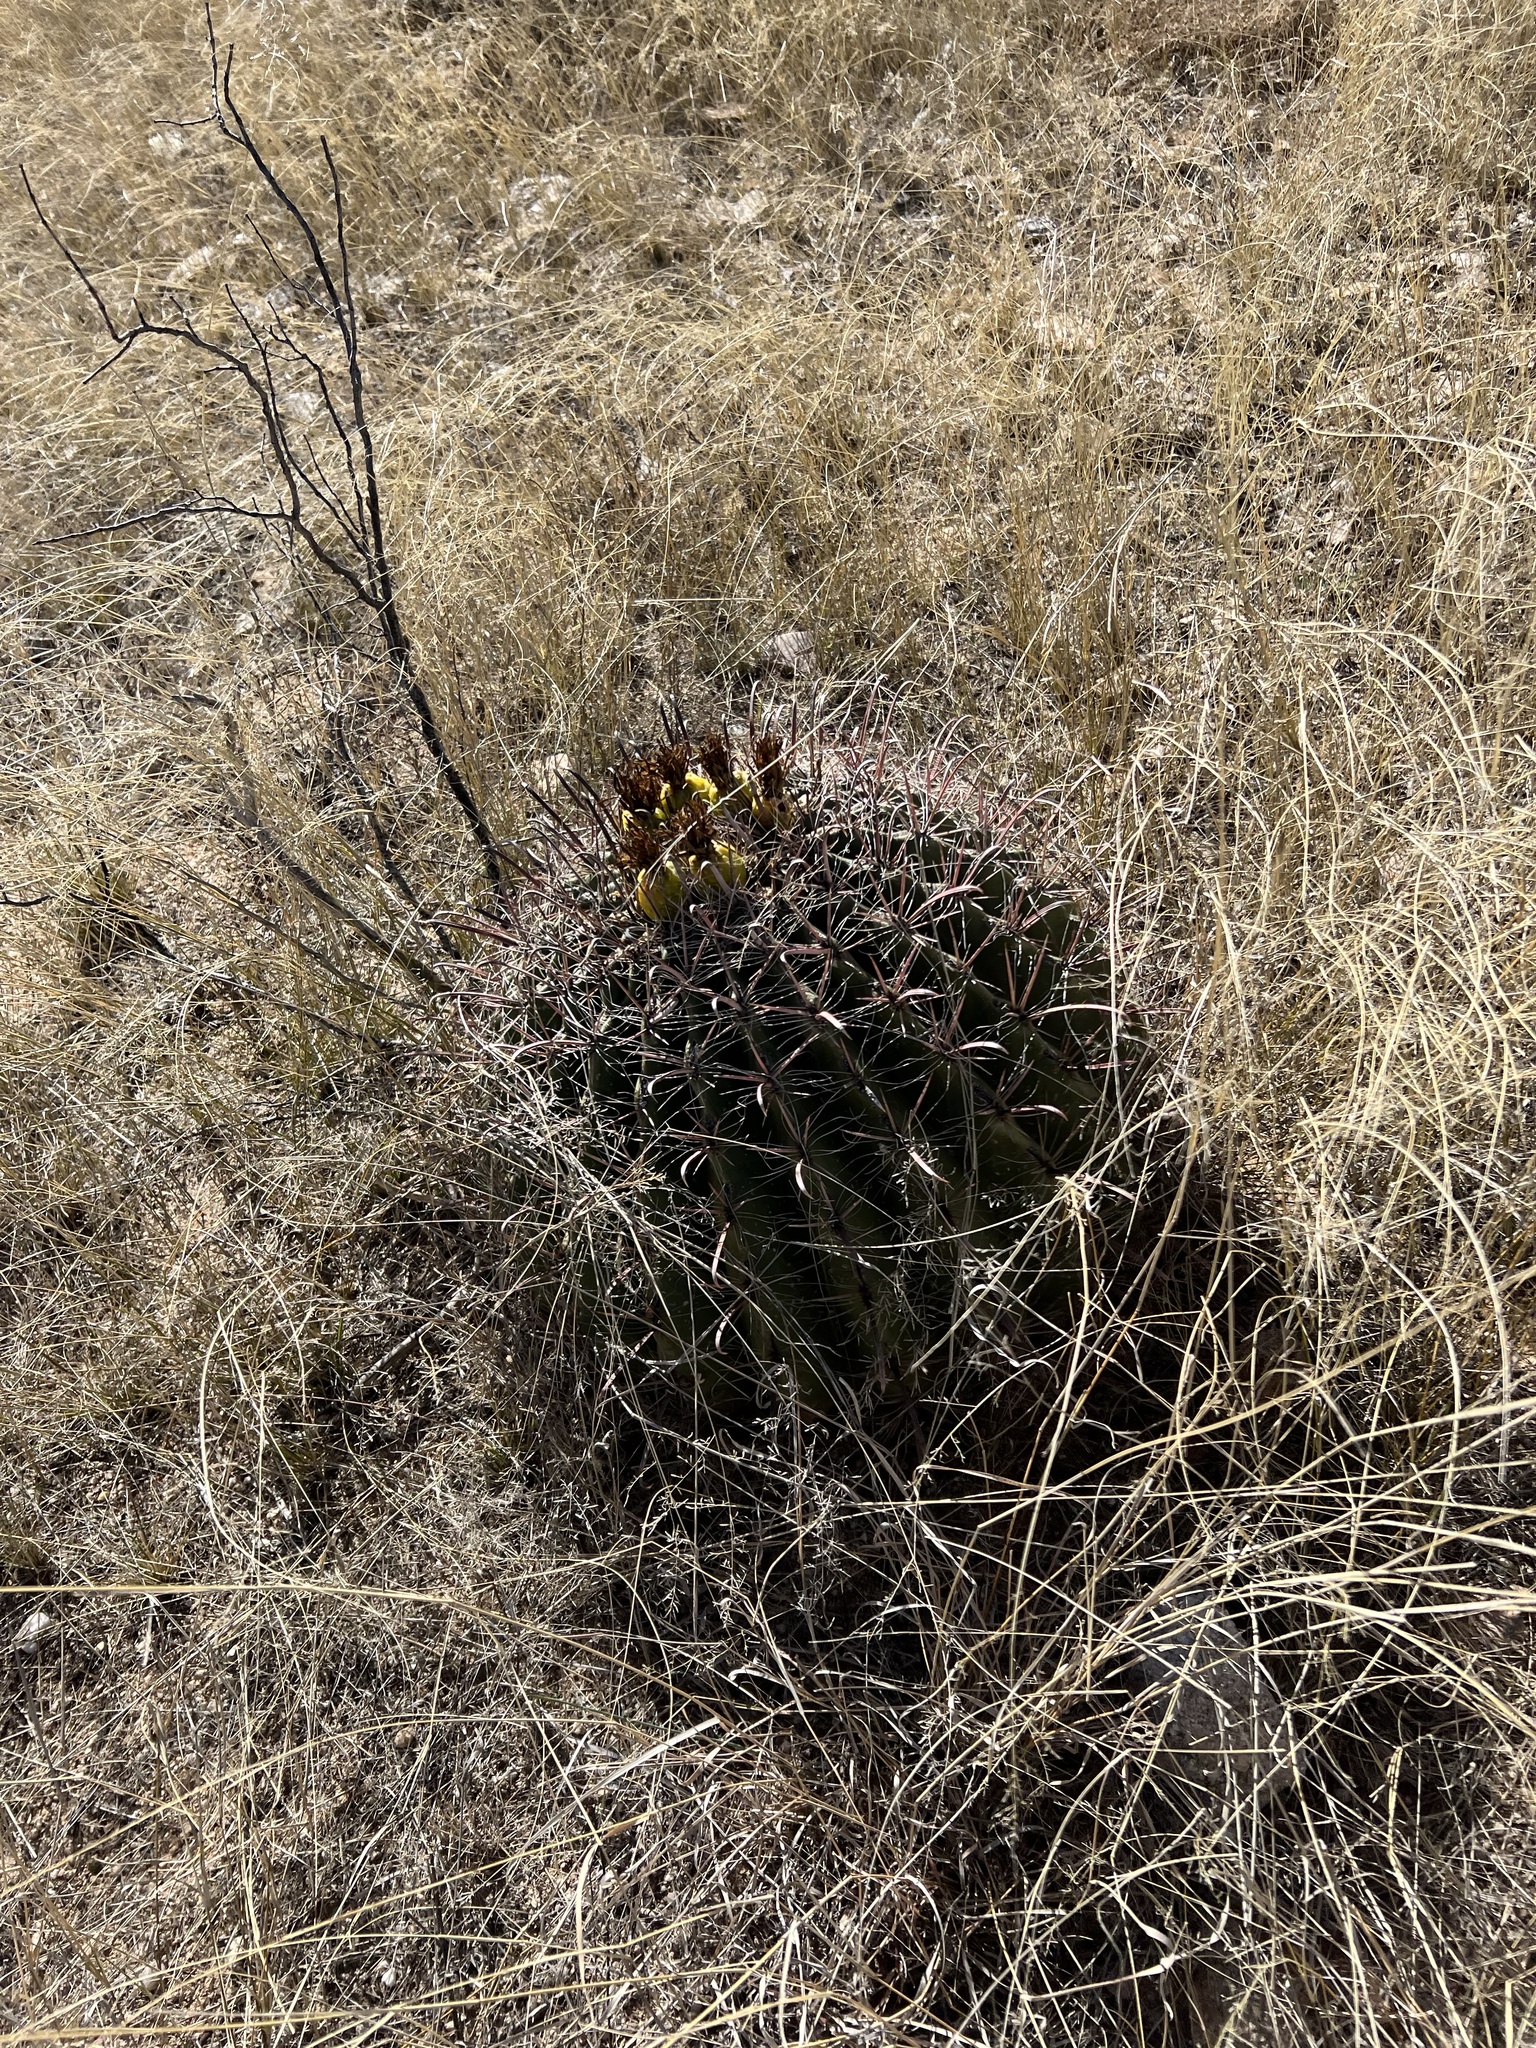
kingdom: Plantae
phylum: Tracheophyta
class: Magnoliopsida
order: Caryophyllales
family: Cactaceae
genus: Ferocactus
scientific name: Ferocactus wislizeni
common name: Candy barrel cactus
